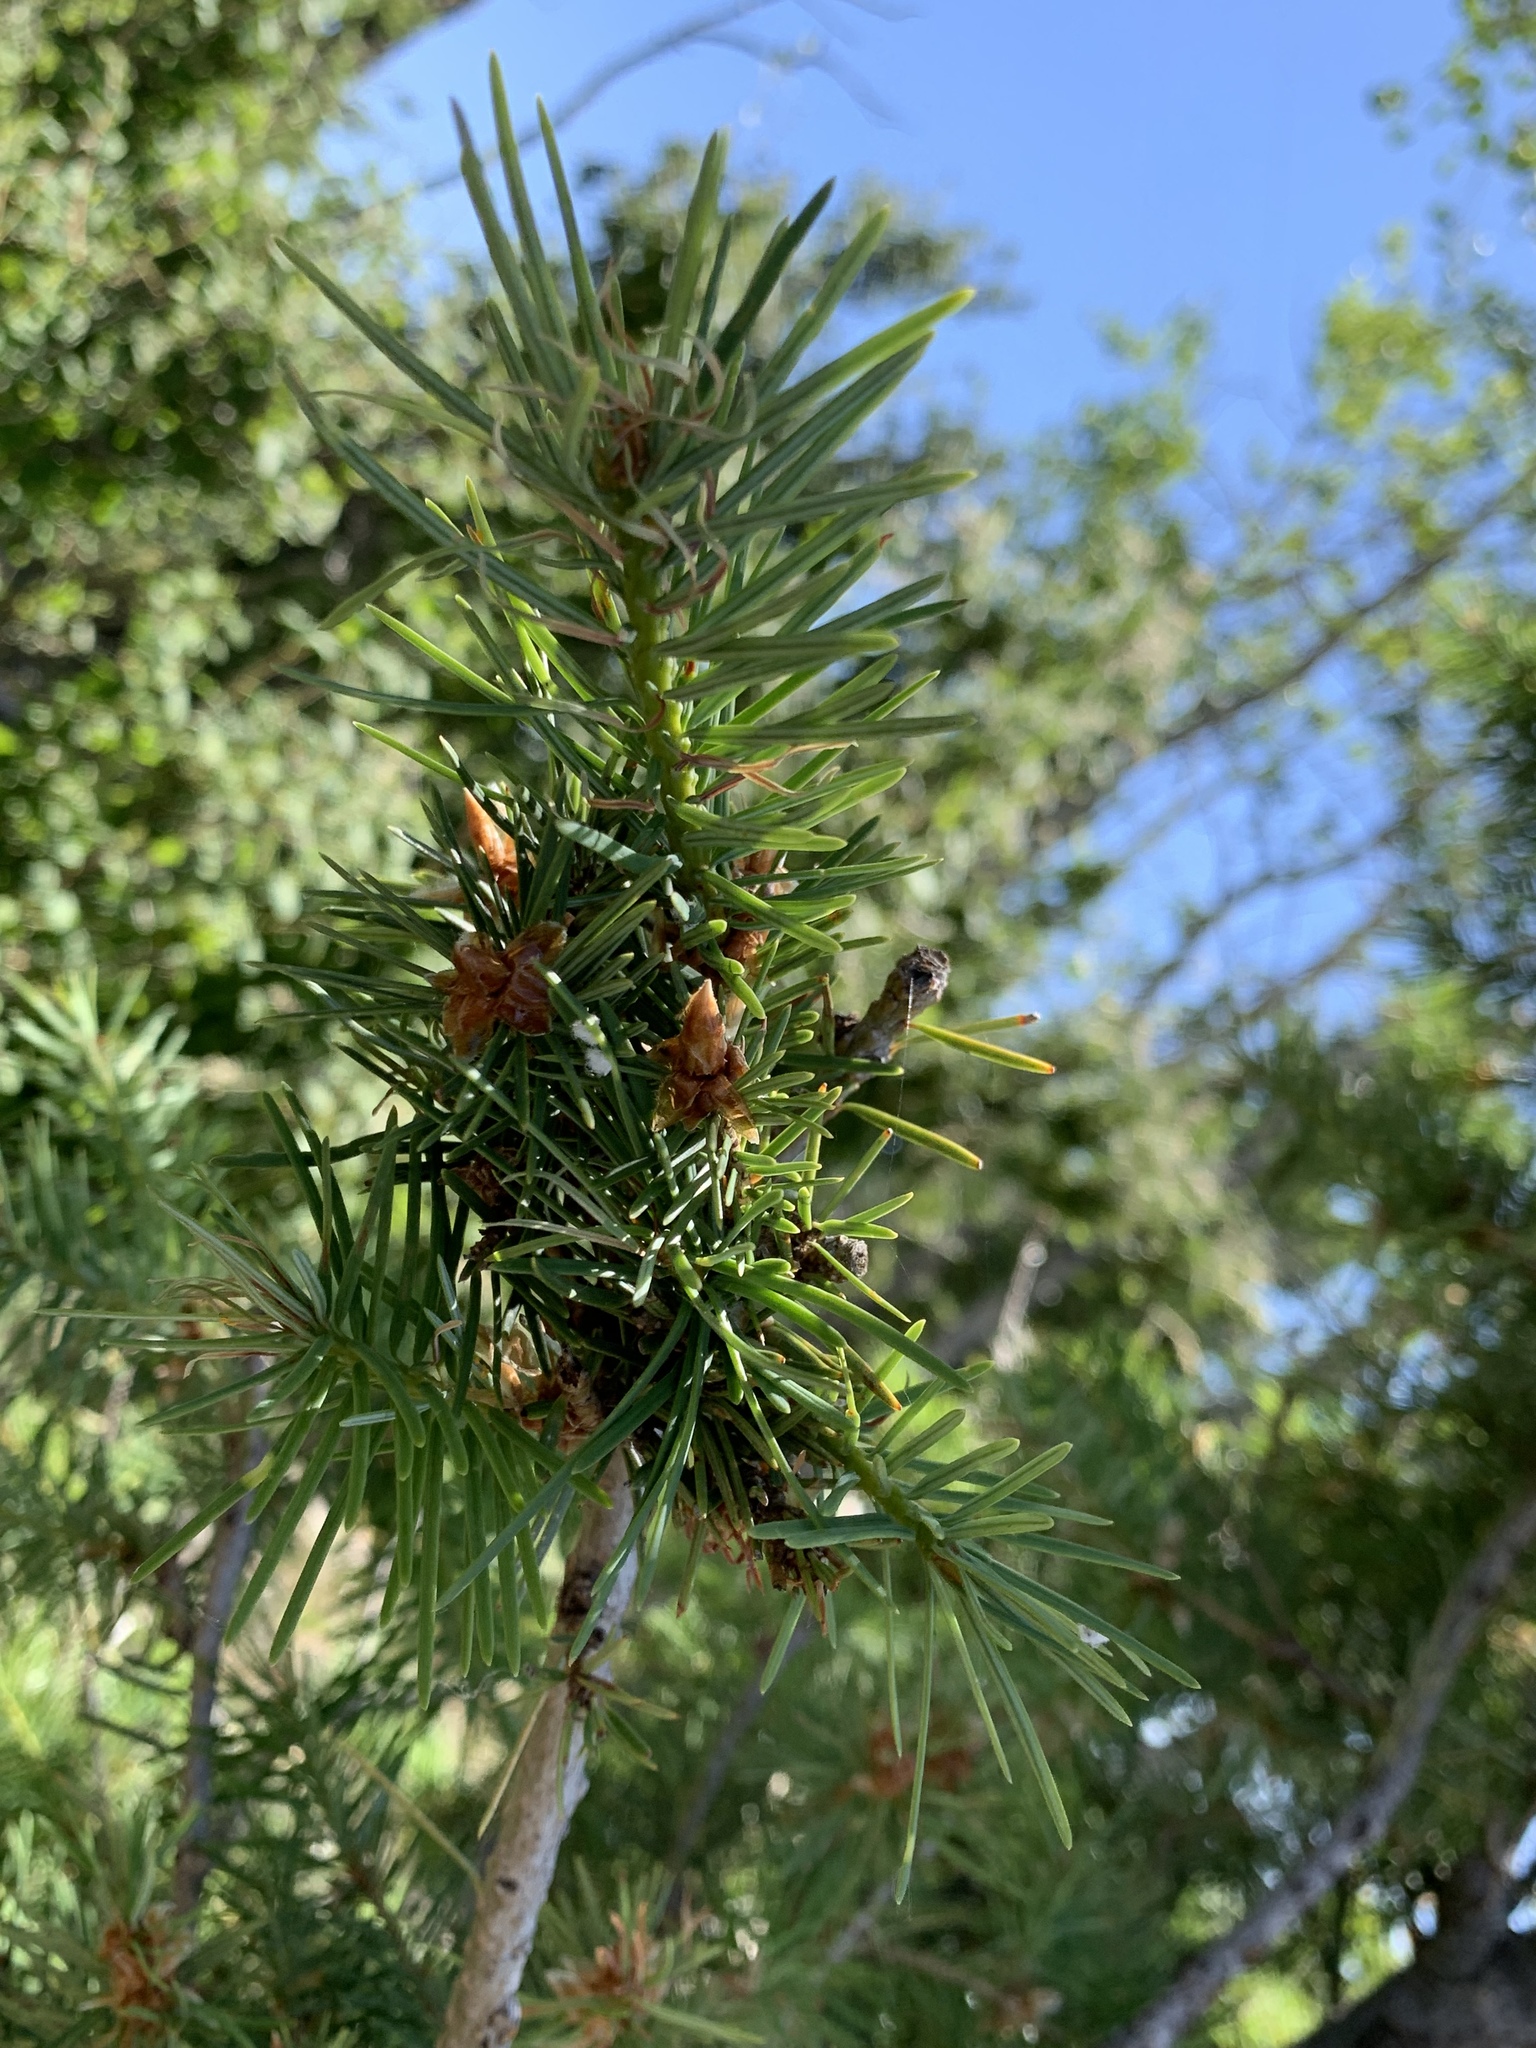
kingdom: Plantae
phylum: Tracheophyta
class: Pinopsida
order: Pinales
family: Pinaceae
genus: Pseudotsuga
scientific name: Pseudotsuga menziesii
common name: Douglas fir
